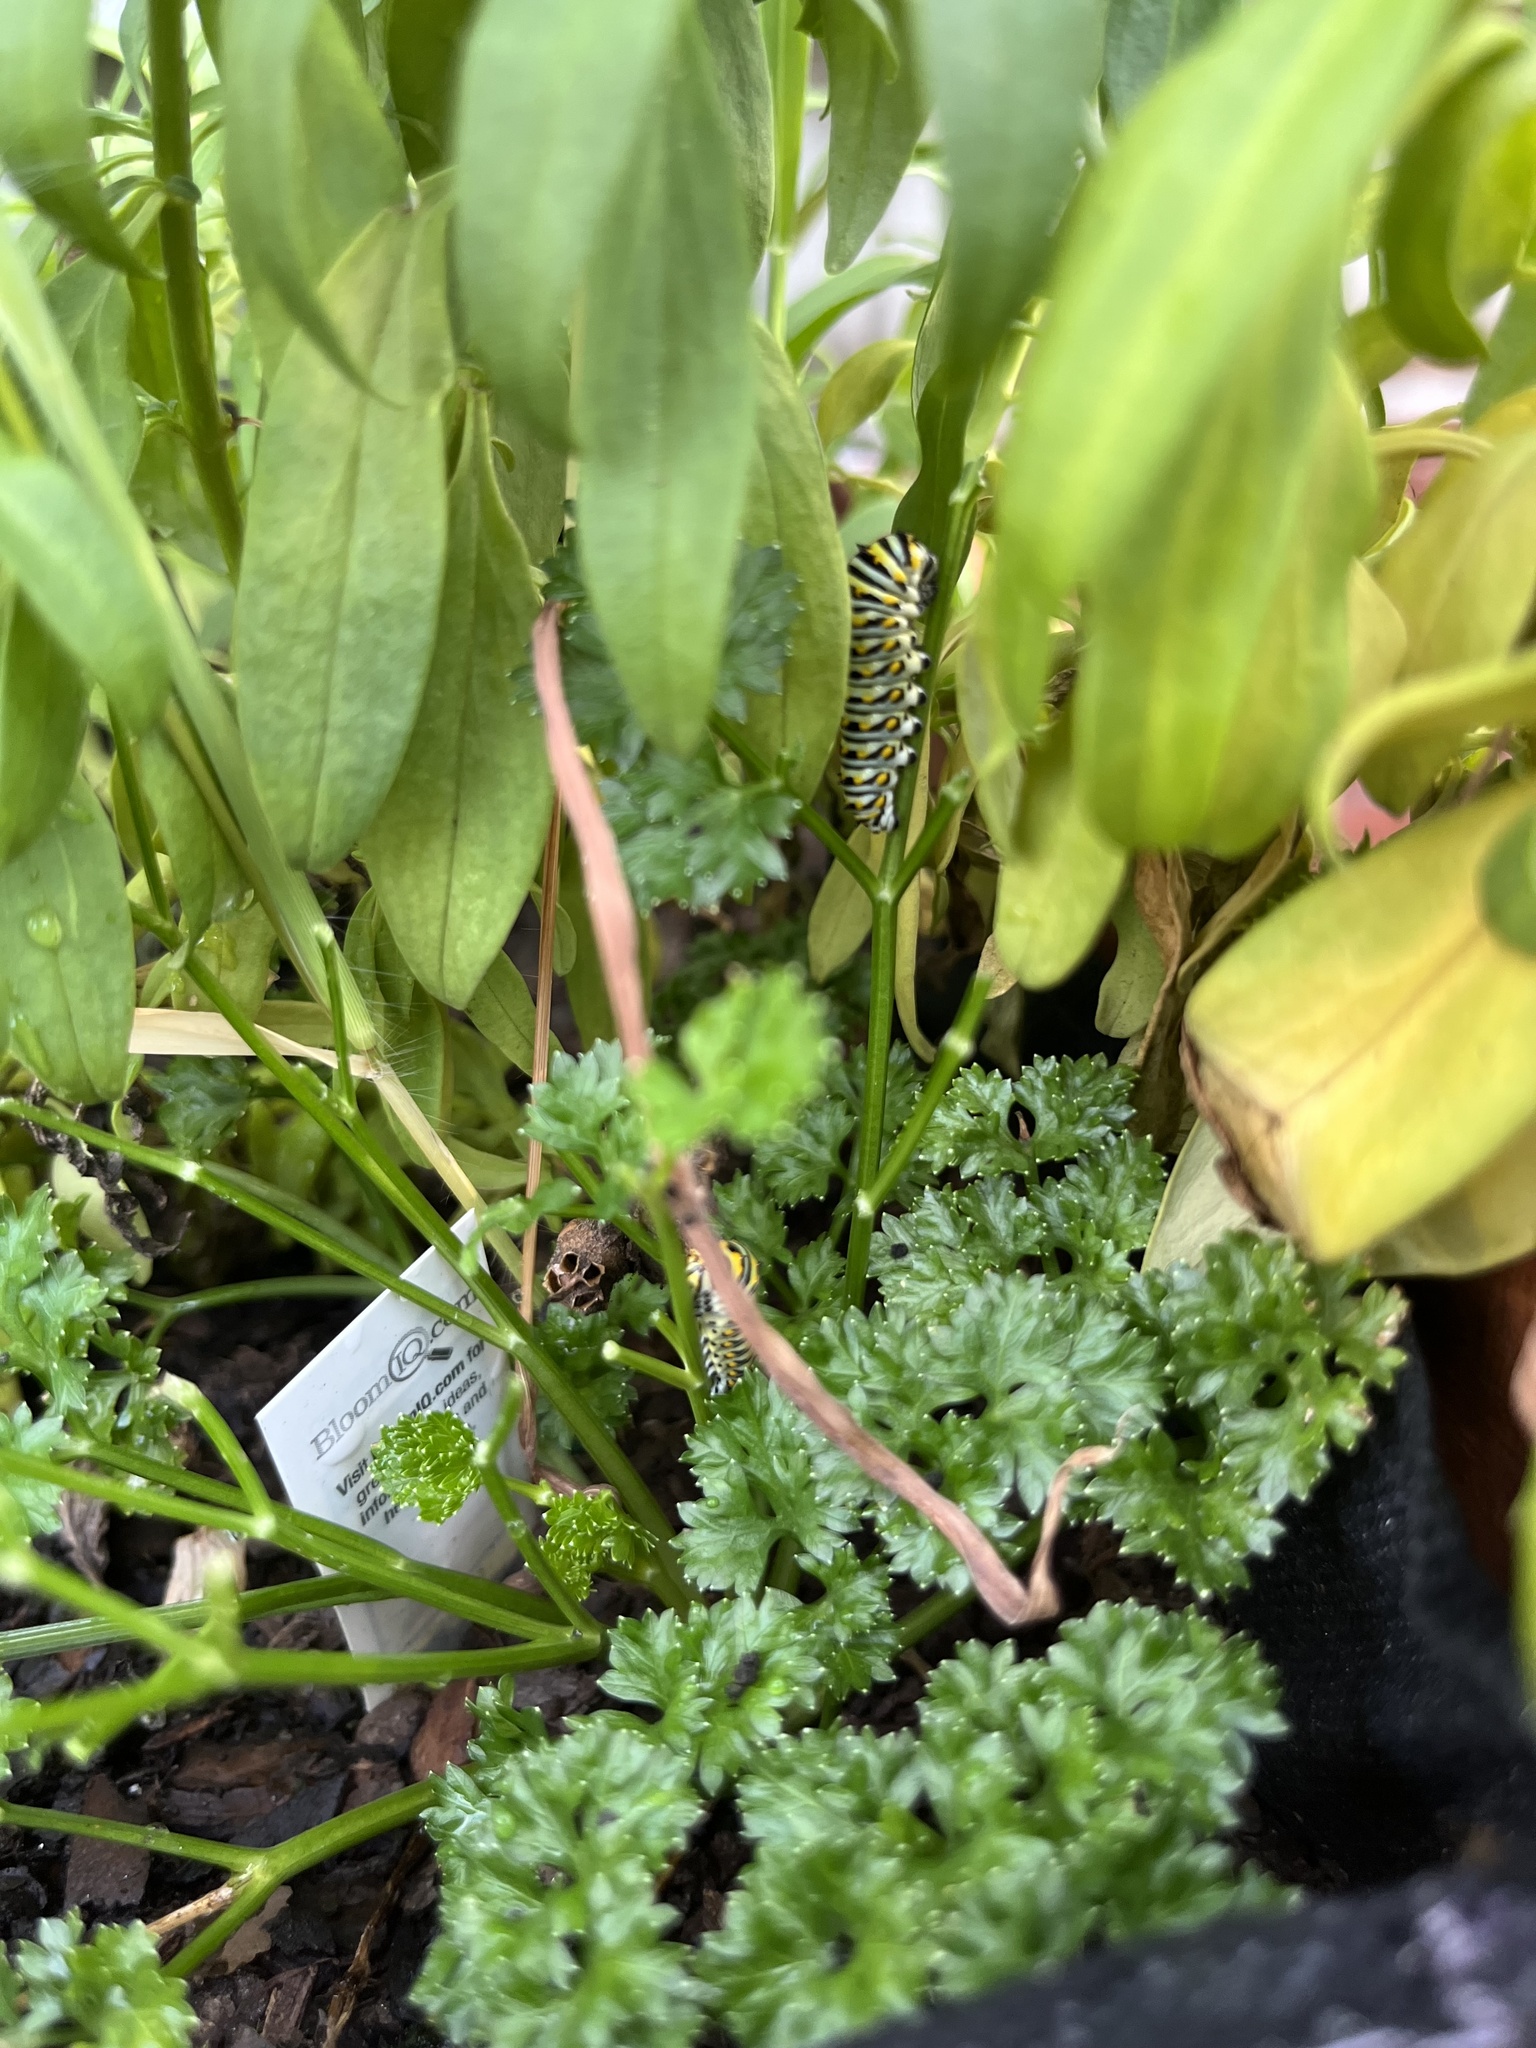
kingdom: Animalia
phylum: Arthropoda
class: Insecta
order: Lepidoptera
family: Papilionidae
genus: Papilio
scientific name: Papilio polyxenes
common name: Black swallowtail
